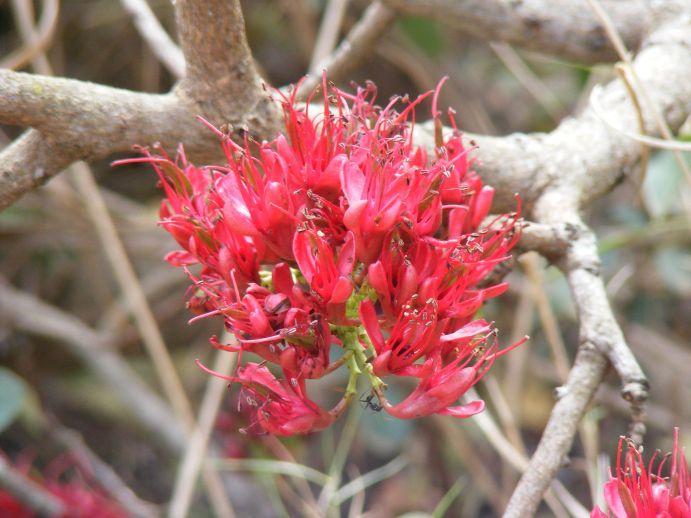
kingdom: Plantae
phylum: Tracheophyta
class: Magnoliopsida
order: Fabales
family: Fabaceae
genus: Schotia
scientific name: Schotia capitata
